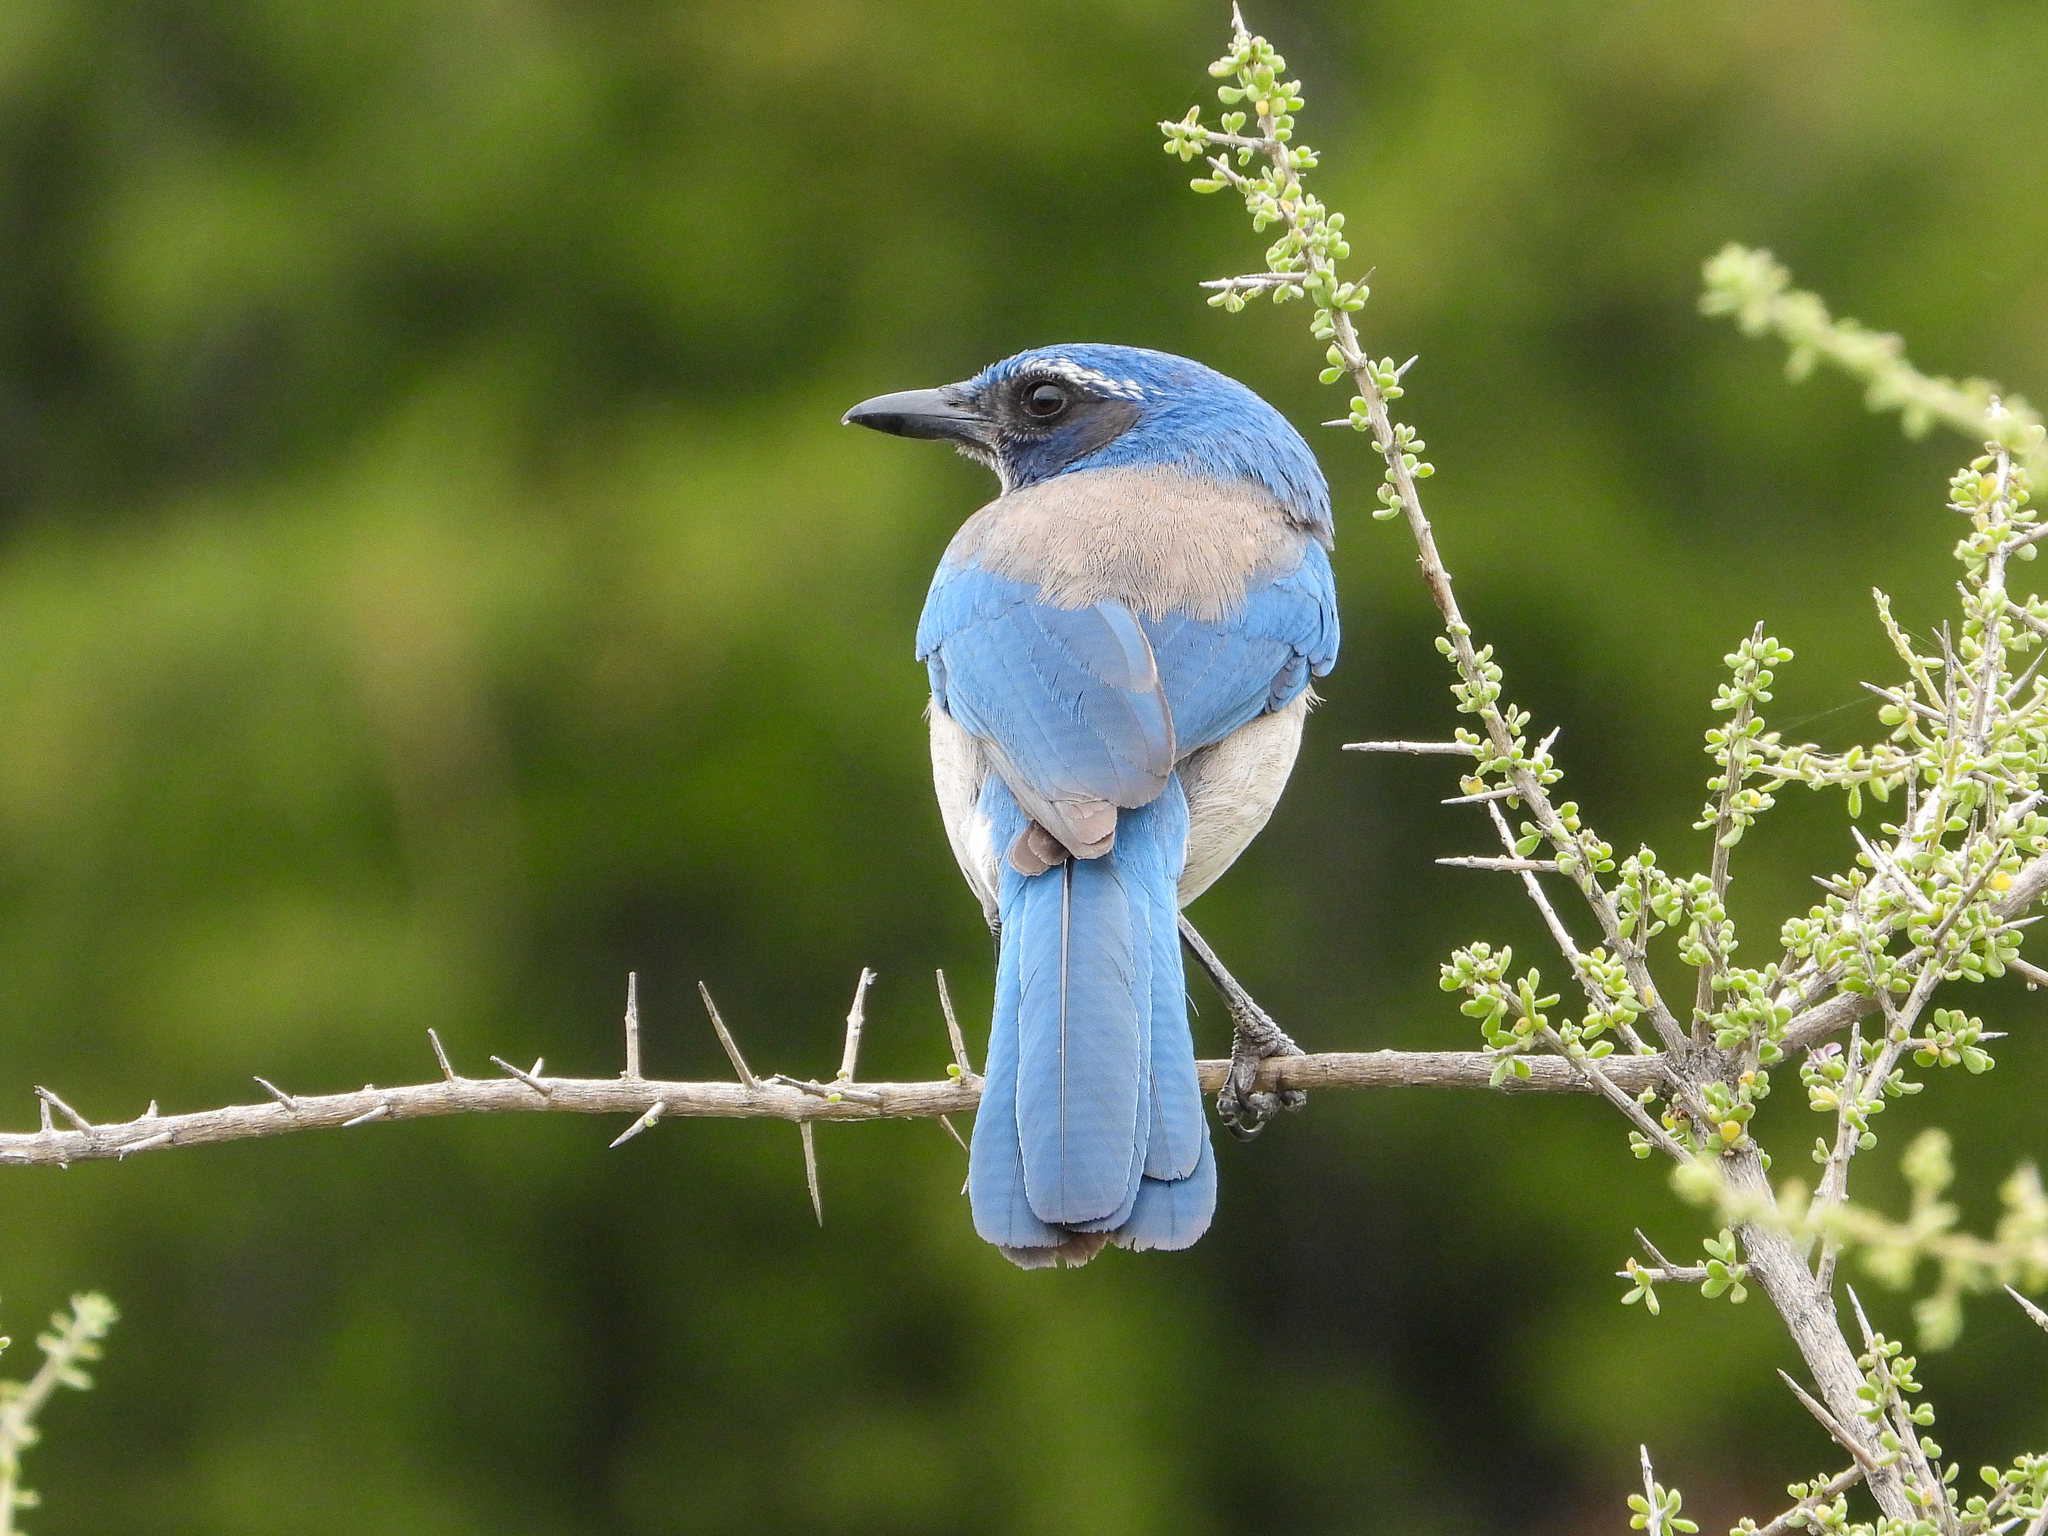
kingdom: Animalia
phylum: Chordata
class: Aves
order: Passeriformes
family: Corvidae
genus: Aphelocoma
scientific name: Aphelocoma californica
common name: California scrub-jay
